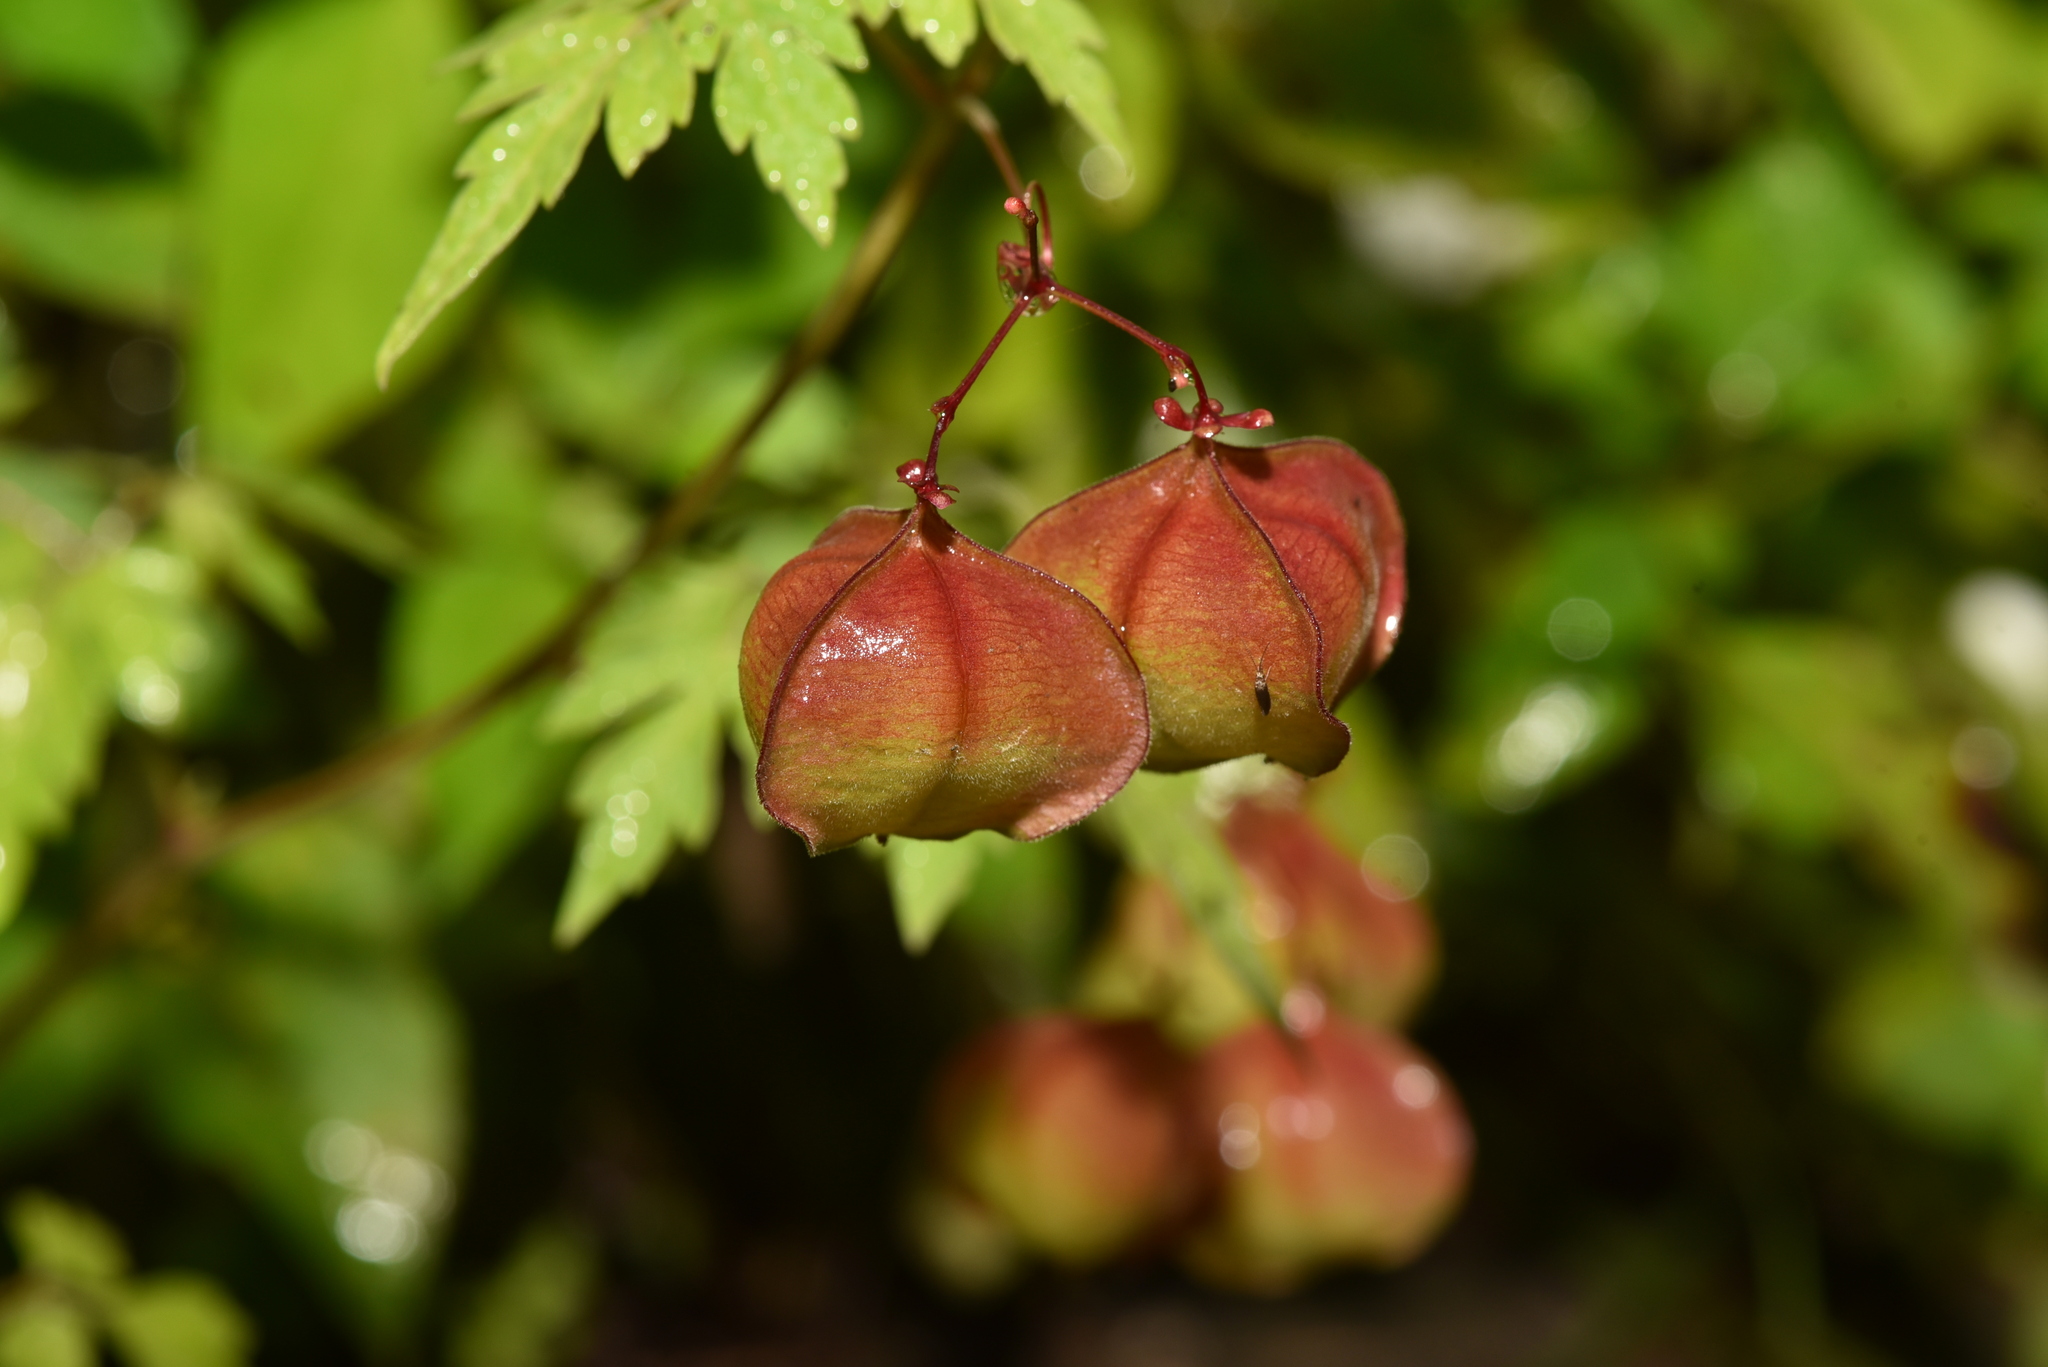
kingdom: Plantae
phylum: Tracheophyta
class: Magnoliopsida
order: Sapindales
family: Sapindaceae
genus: Cardiospermum
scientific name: Cardiospermum halicacabum
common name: Balloon vine
